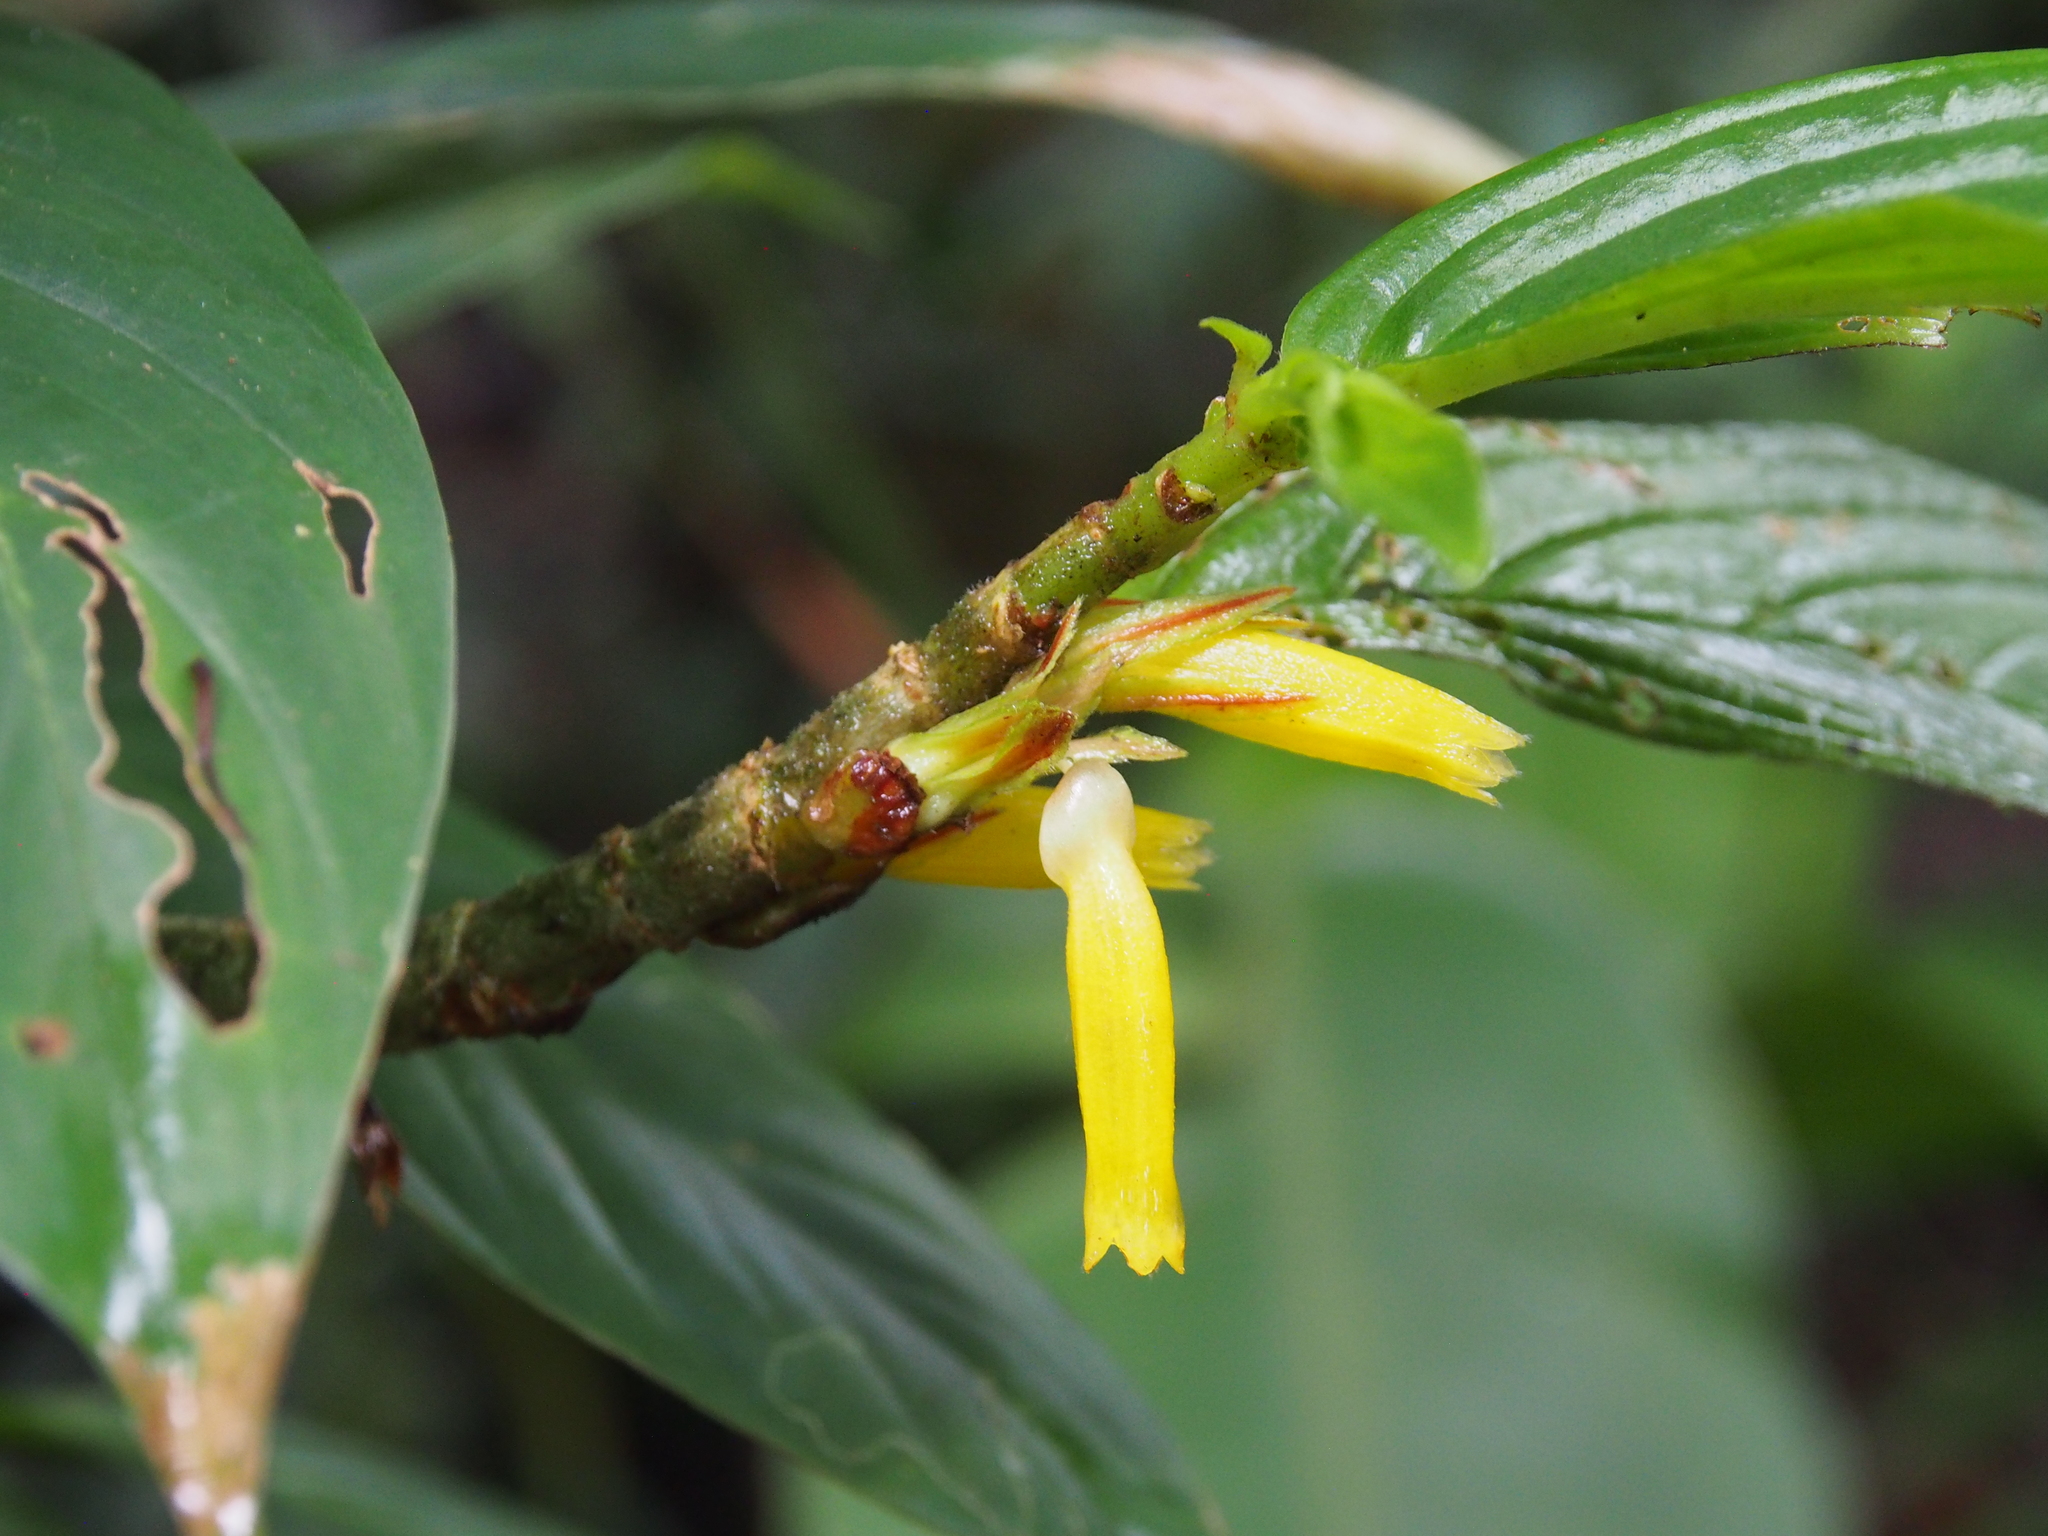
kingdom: Plantae
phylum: Tracheophyta
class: Magnoliopsida
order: Lamiales
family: Gesneriaceae
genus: Columnea
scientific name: Columnea consanguinea
